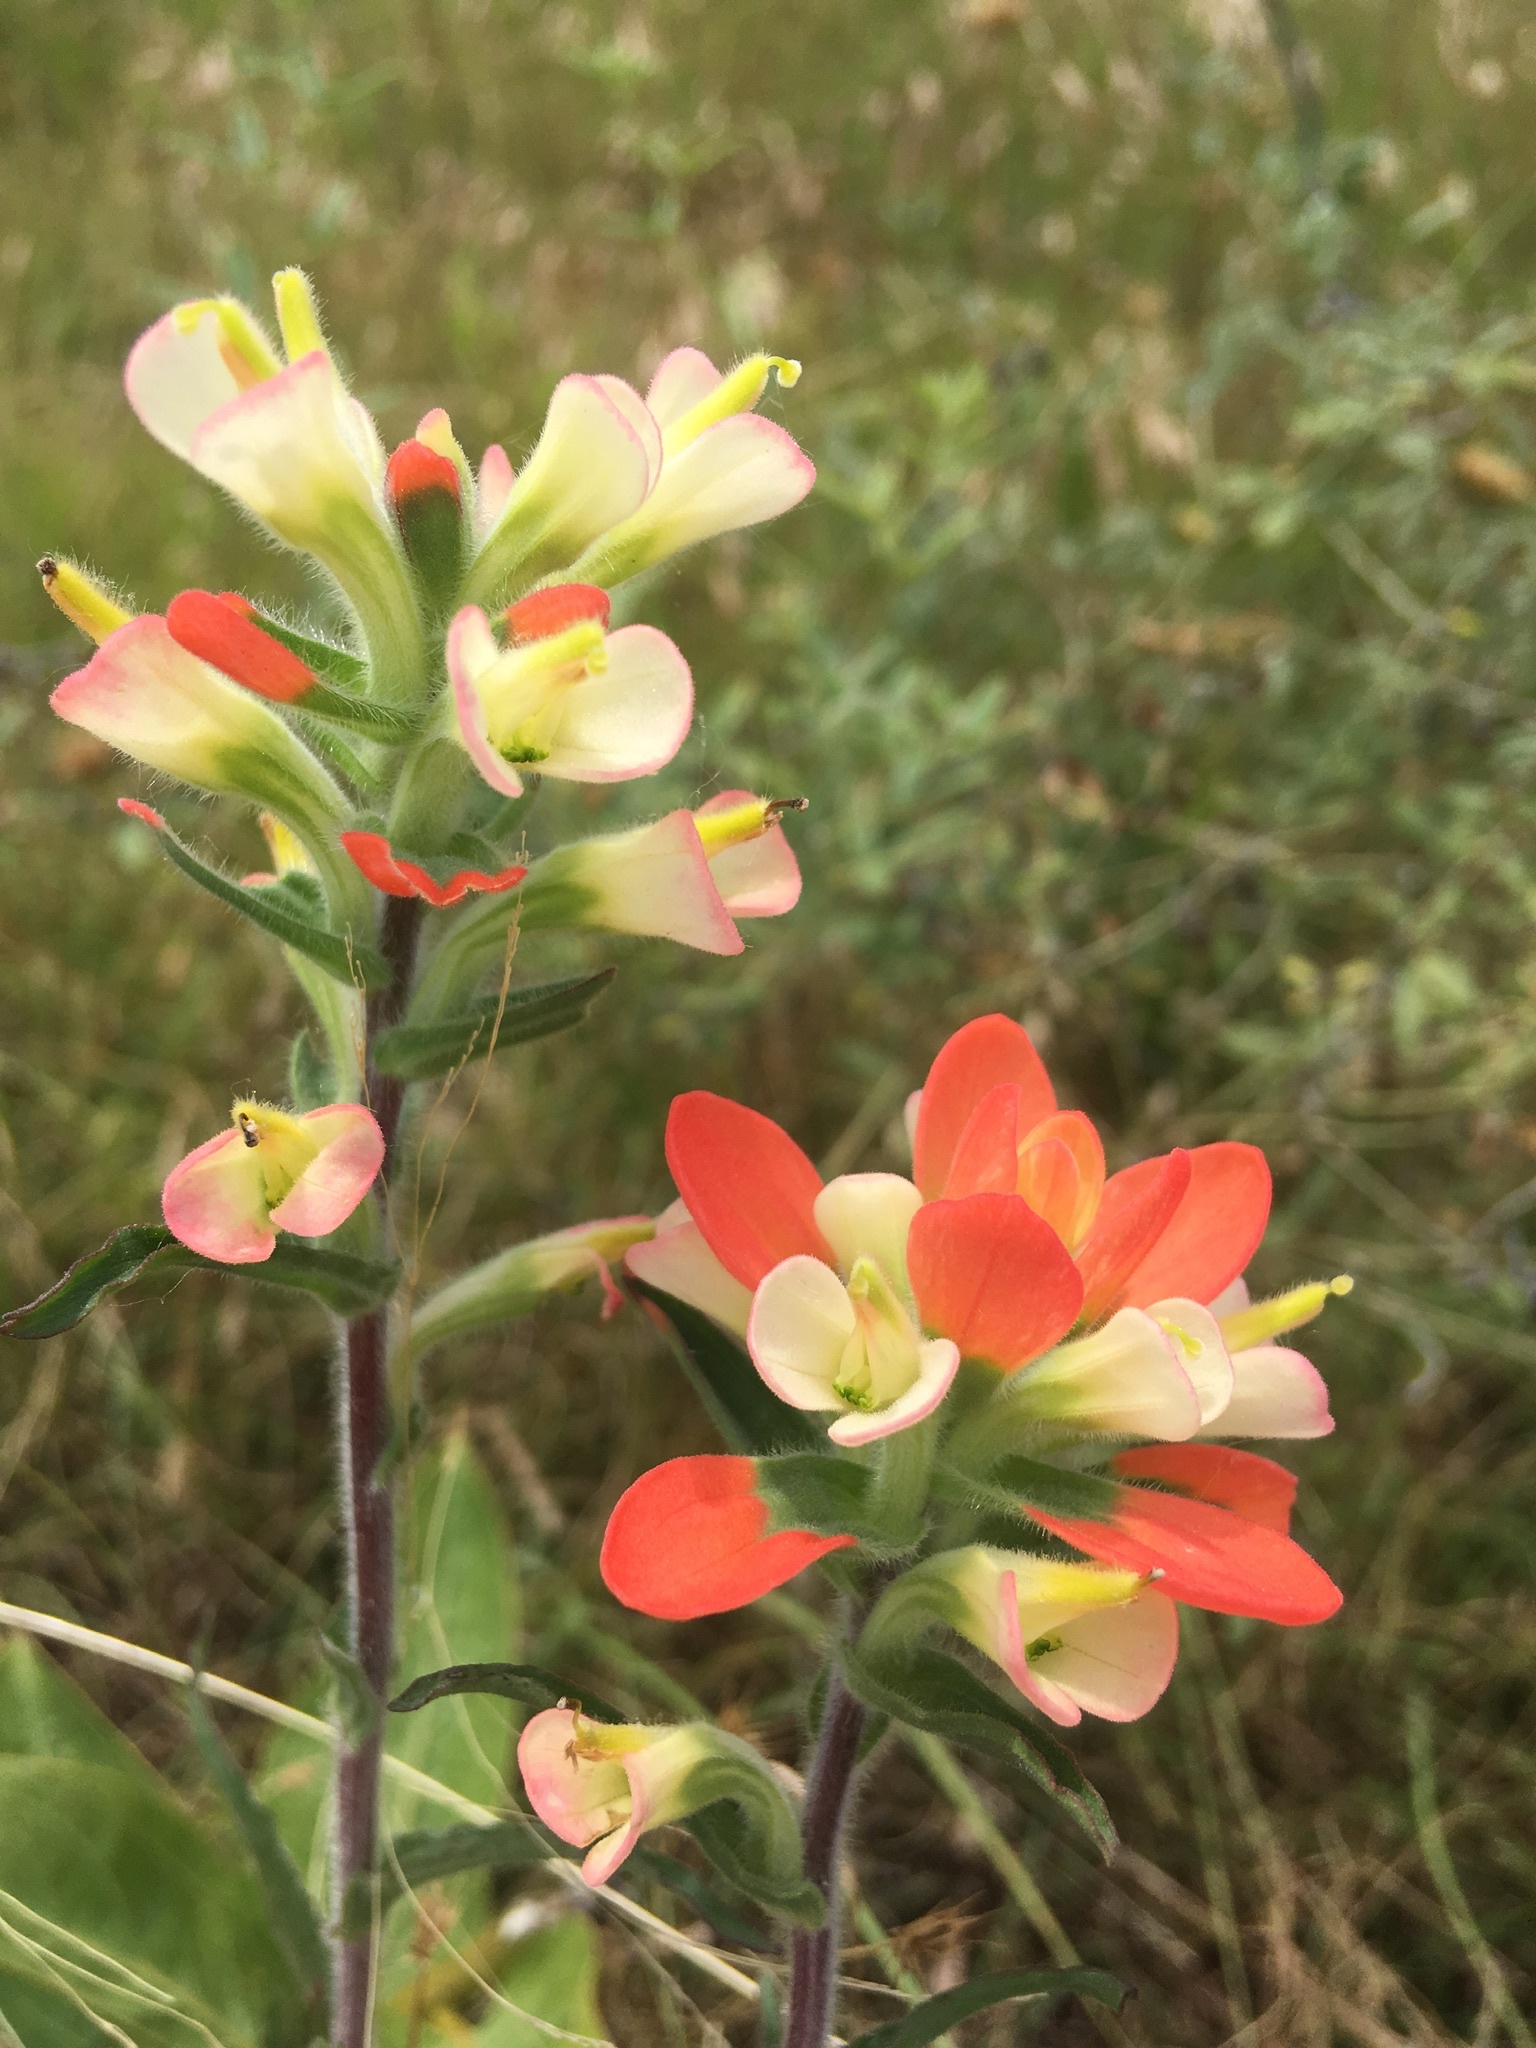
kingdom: Plantae
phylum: Tracheophyta
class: Magnoliopsida
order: Lamiales
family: Orobanchaceae
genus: Castilleja
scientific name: Castilleja indivisa
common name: Texas paintbrush
